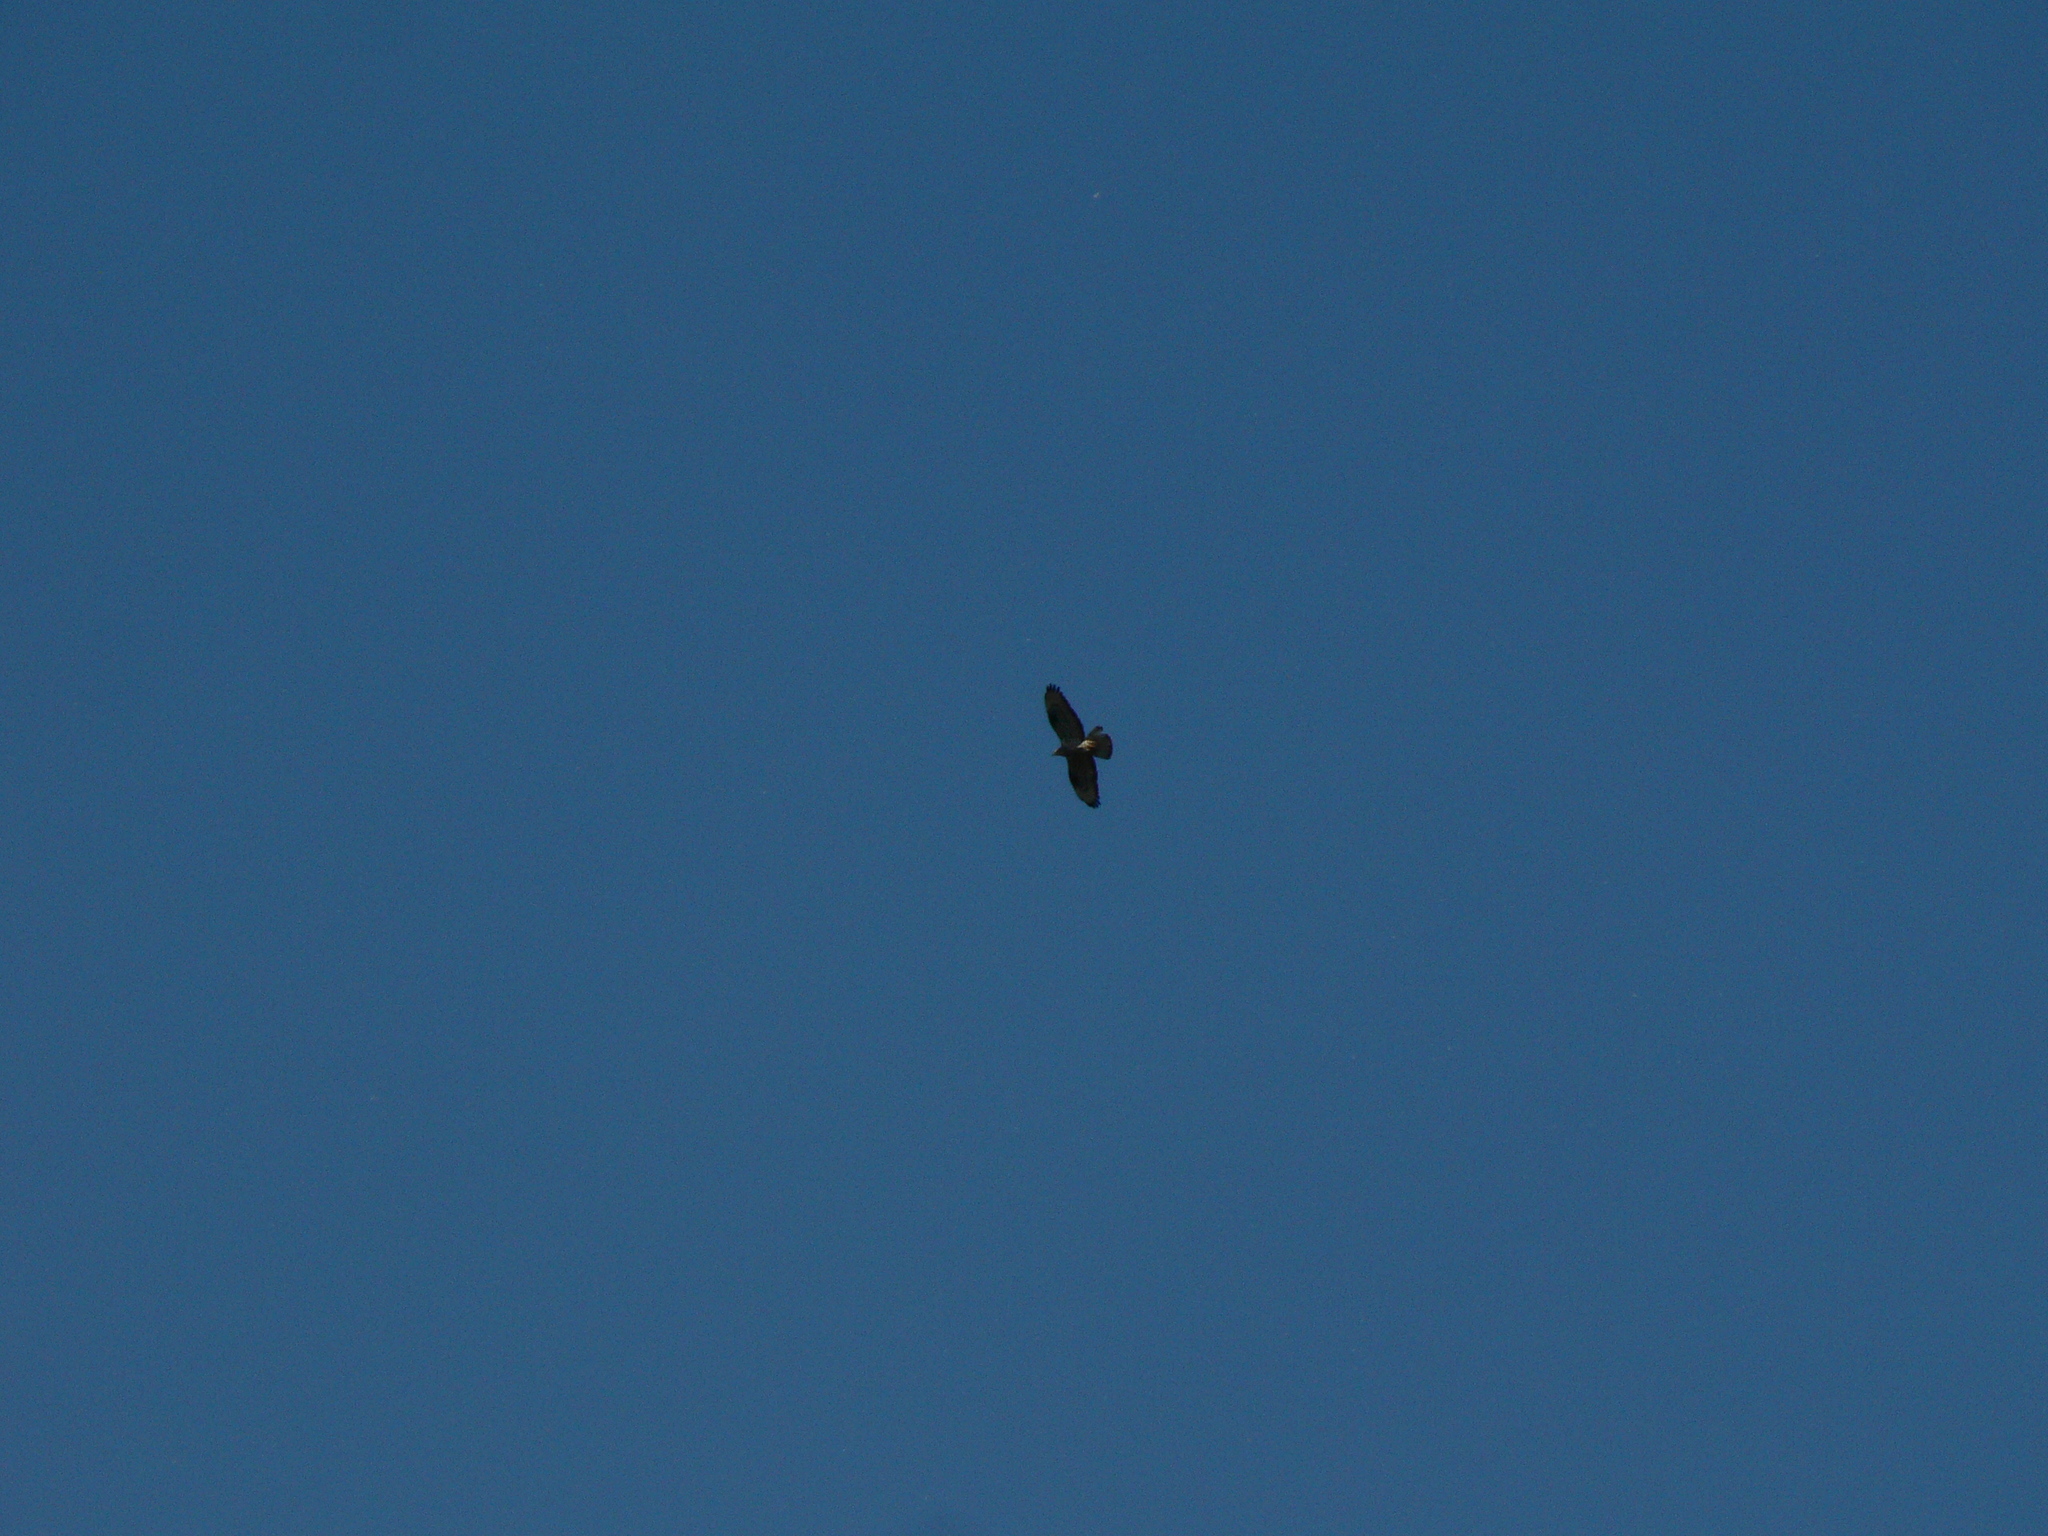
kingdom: Animalia
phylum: Chordata
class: Aves
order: Accipitriformes
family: Accipitridae
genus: Pernis
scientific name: Pernis apivorus
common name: European honey buzzard
